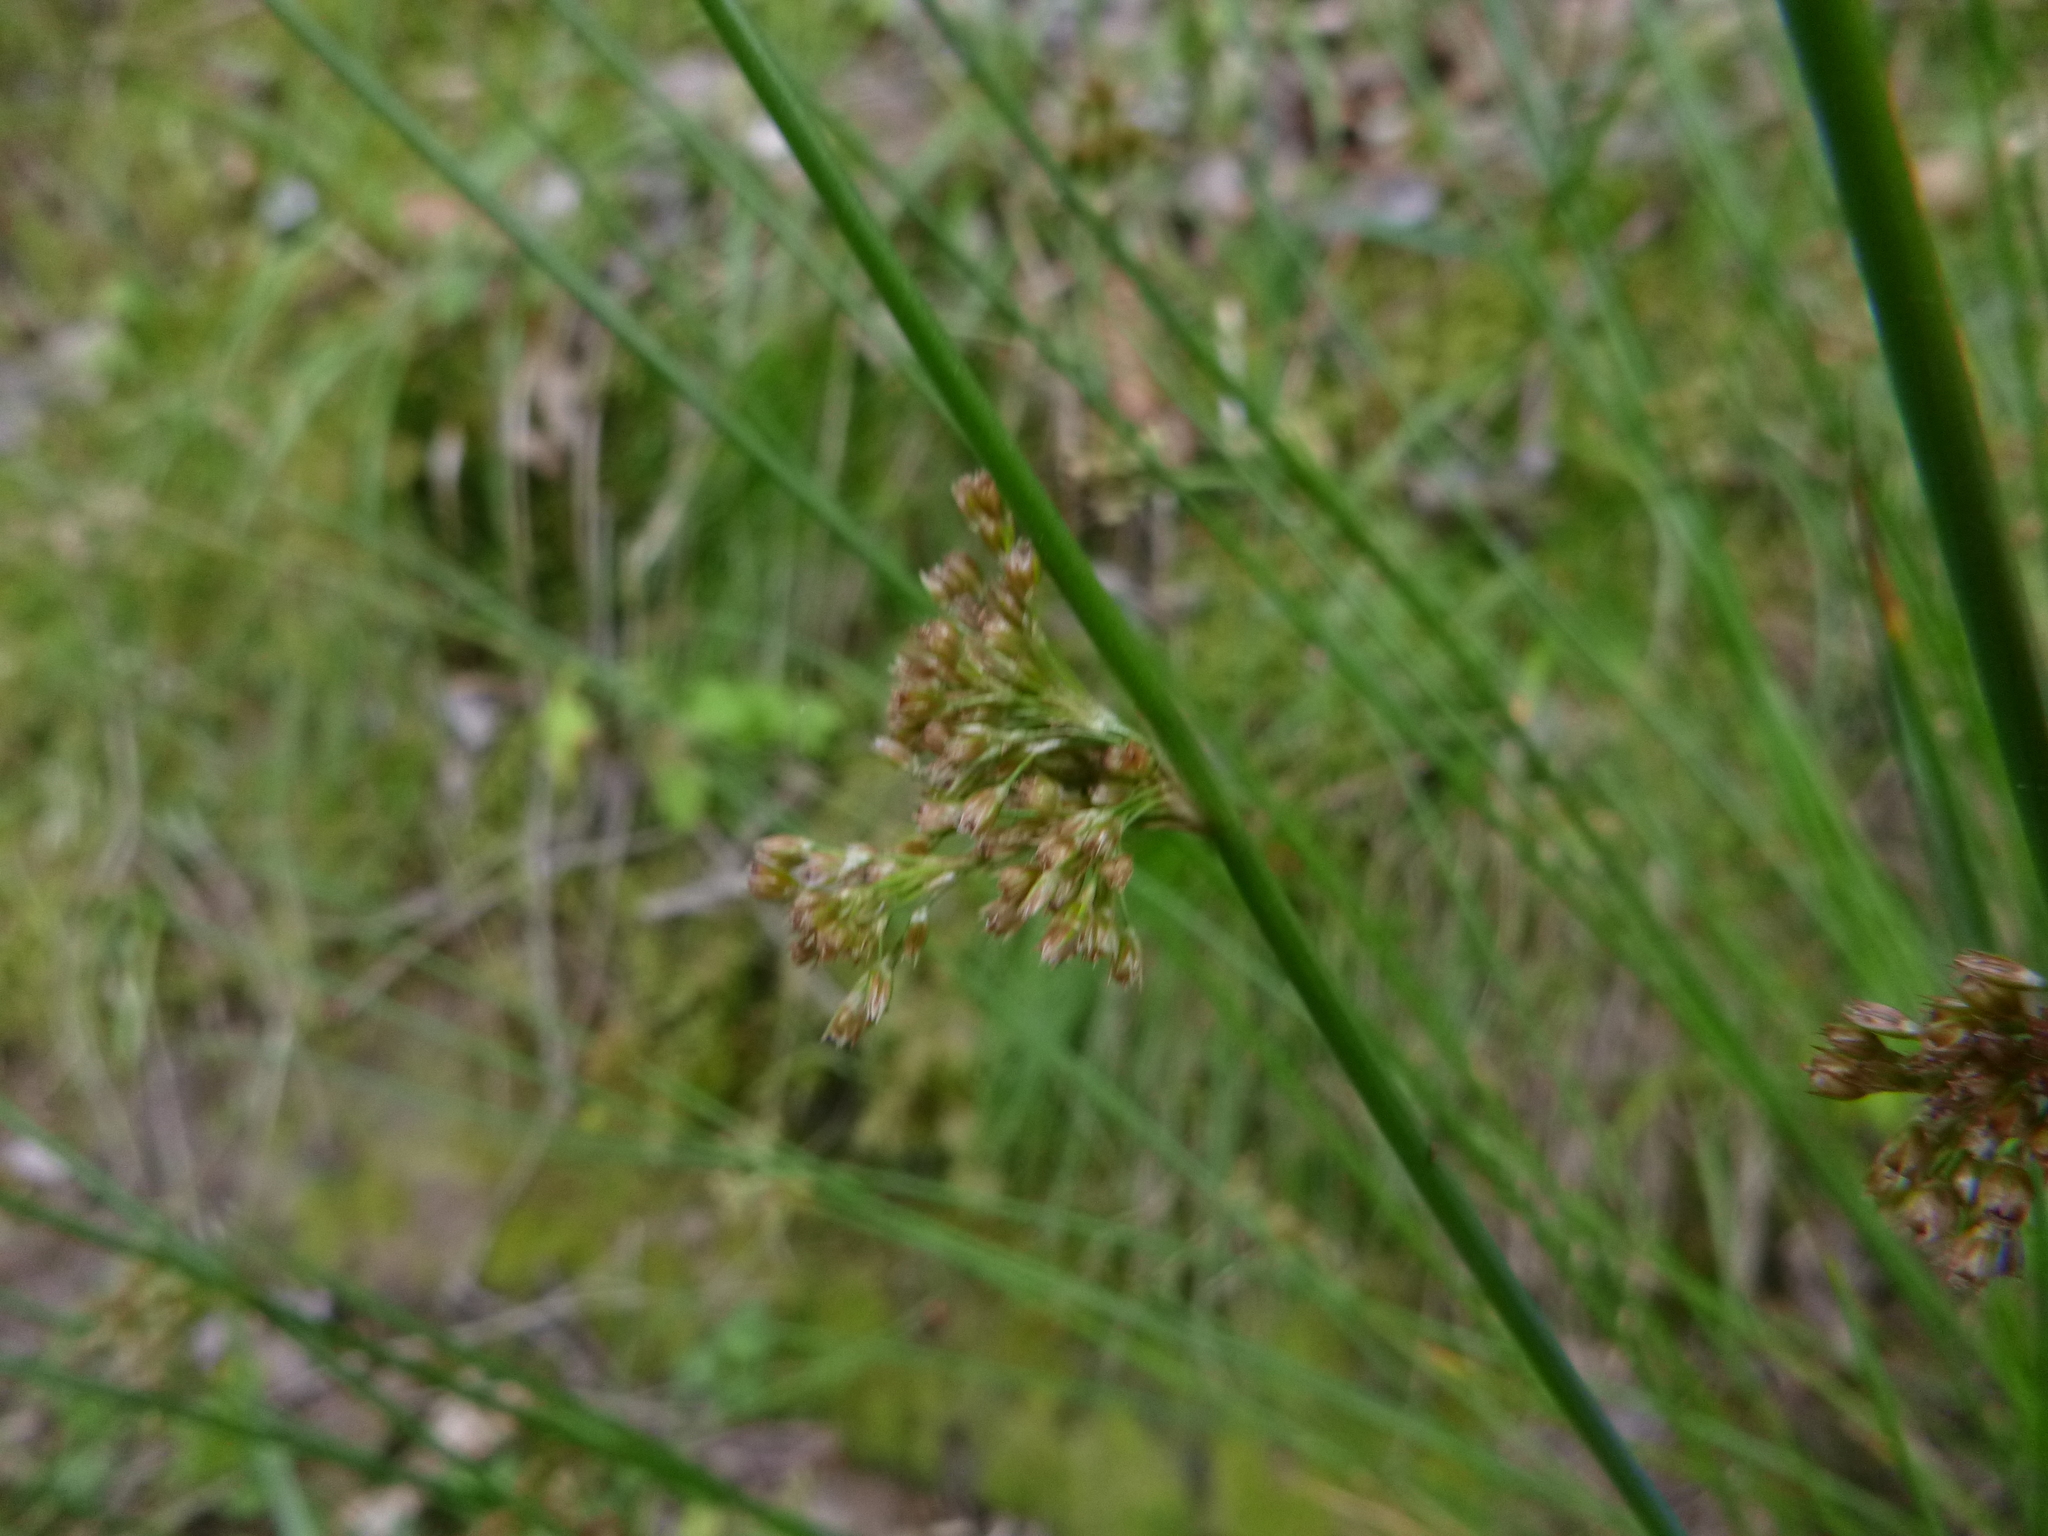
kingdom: Plantae
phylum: Tracheophyta
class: Liliopsida
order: Poales
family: Juncaceae
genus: Juncus
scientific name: Juncus effusus
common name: Soft rush
